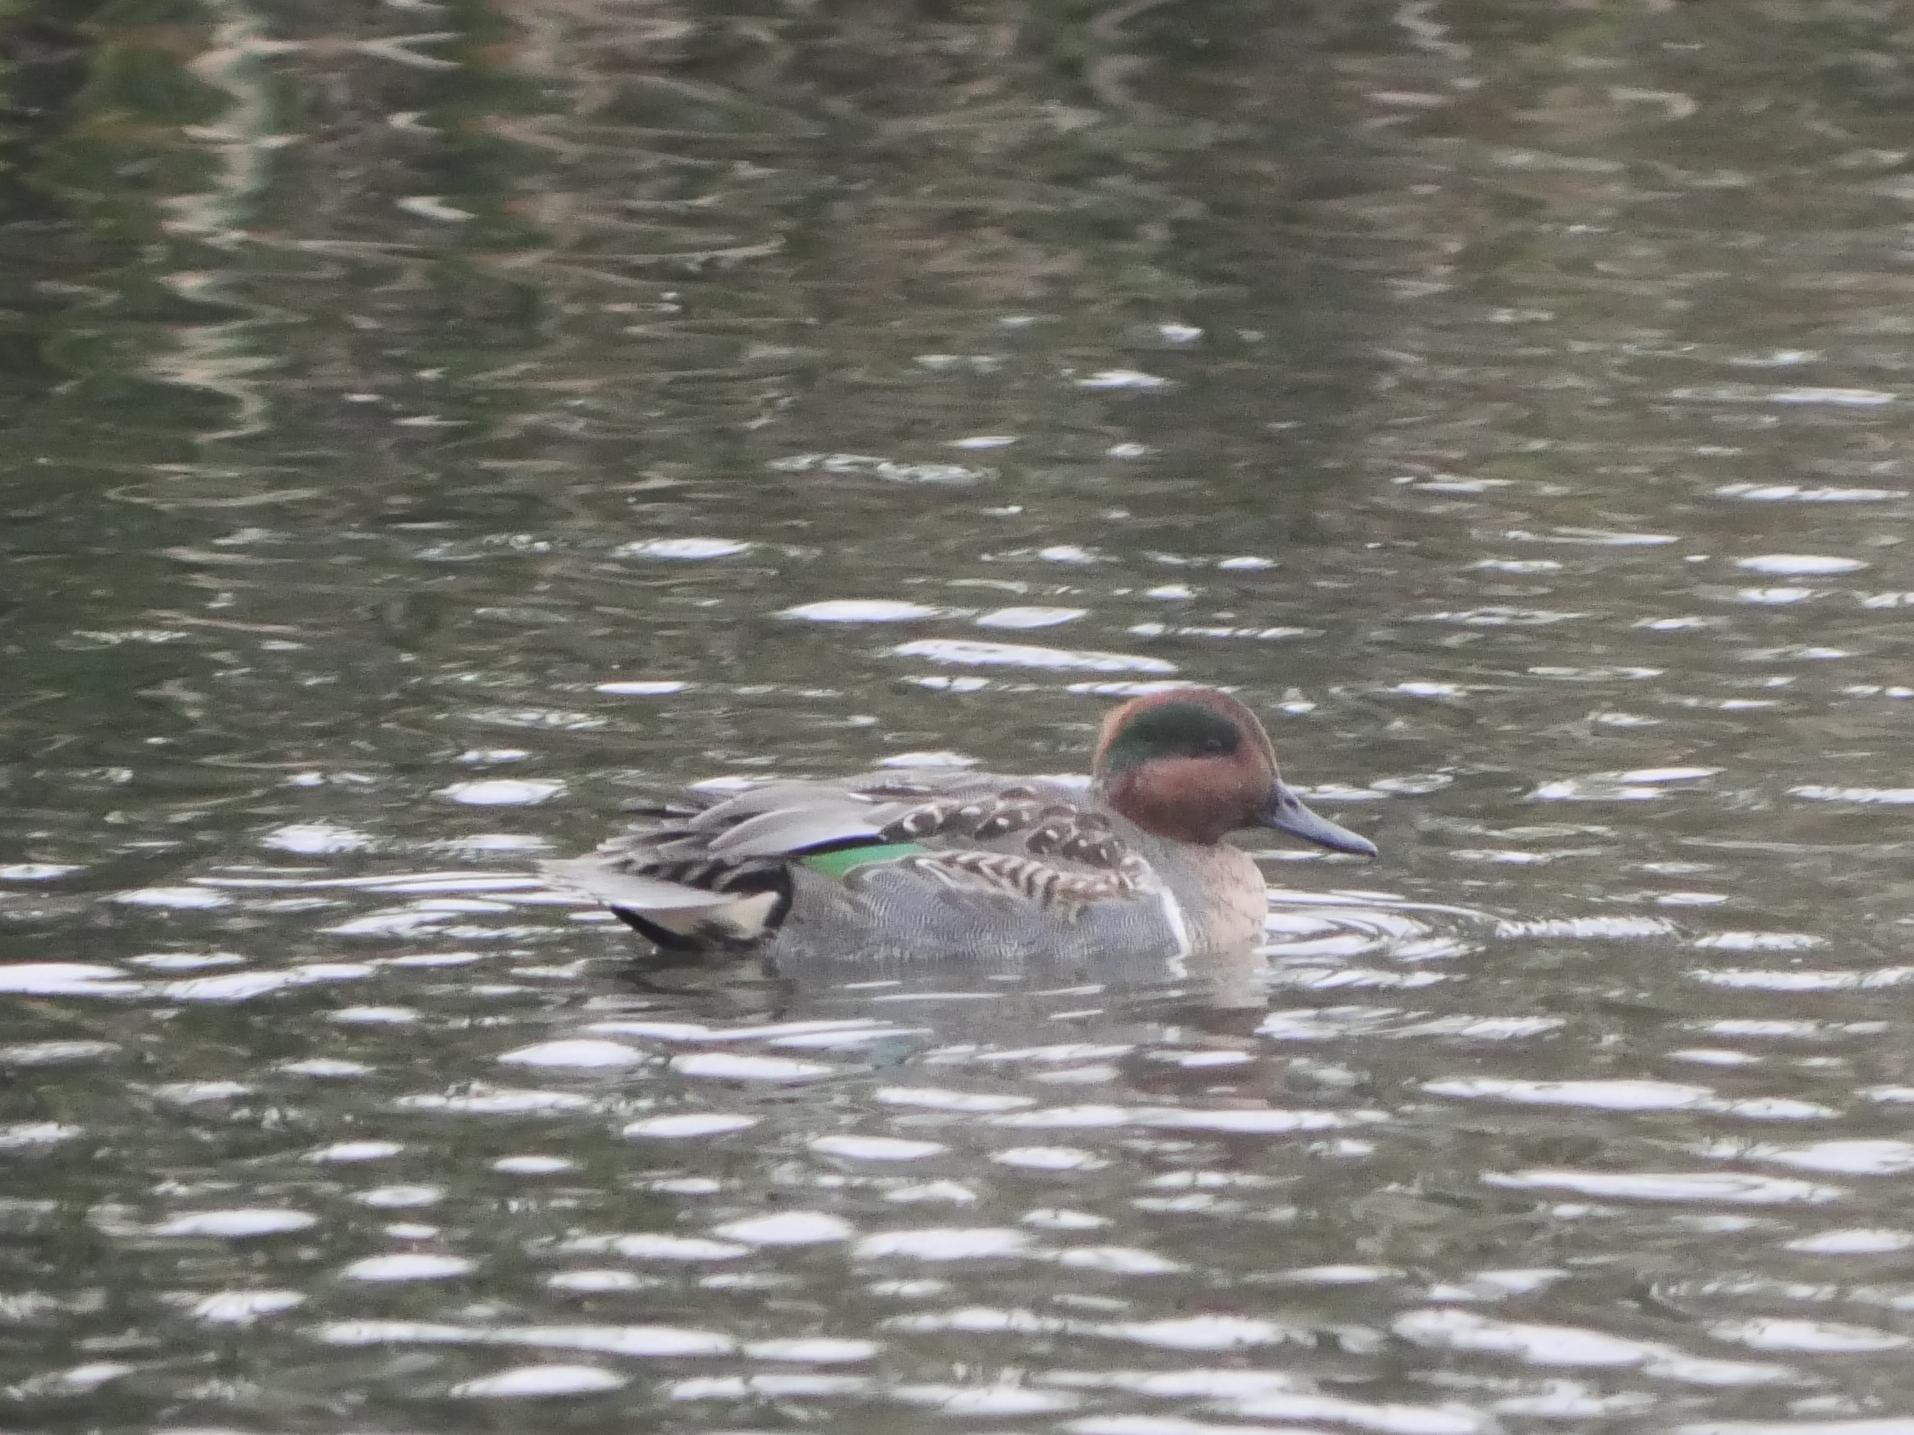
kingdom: Animalia
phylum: Chordata
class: Aves
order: Anseriformes
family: Anatidae
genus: Anas
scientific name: Anas crecca
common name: Eurasian teal
